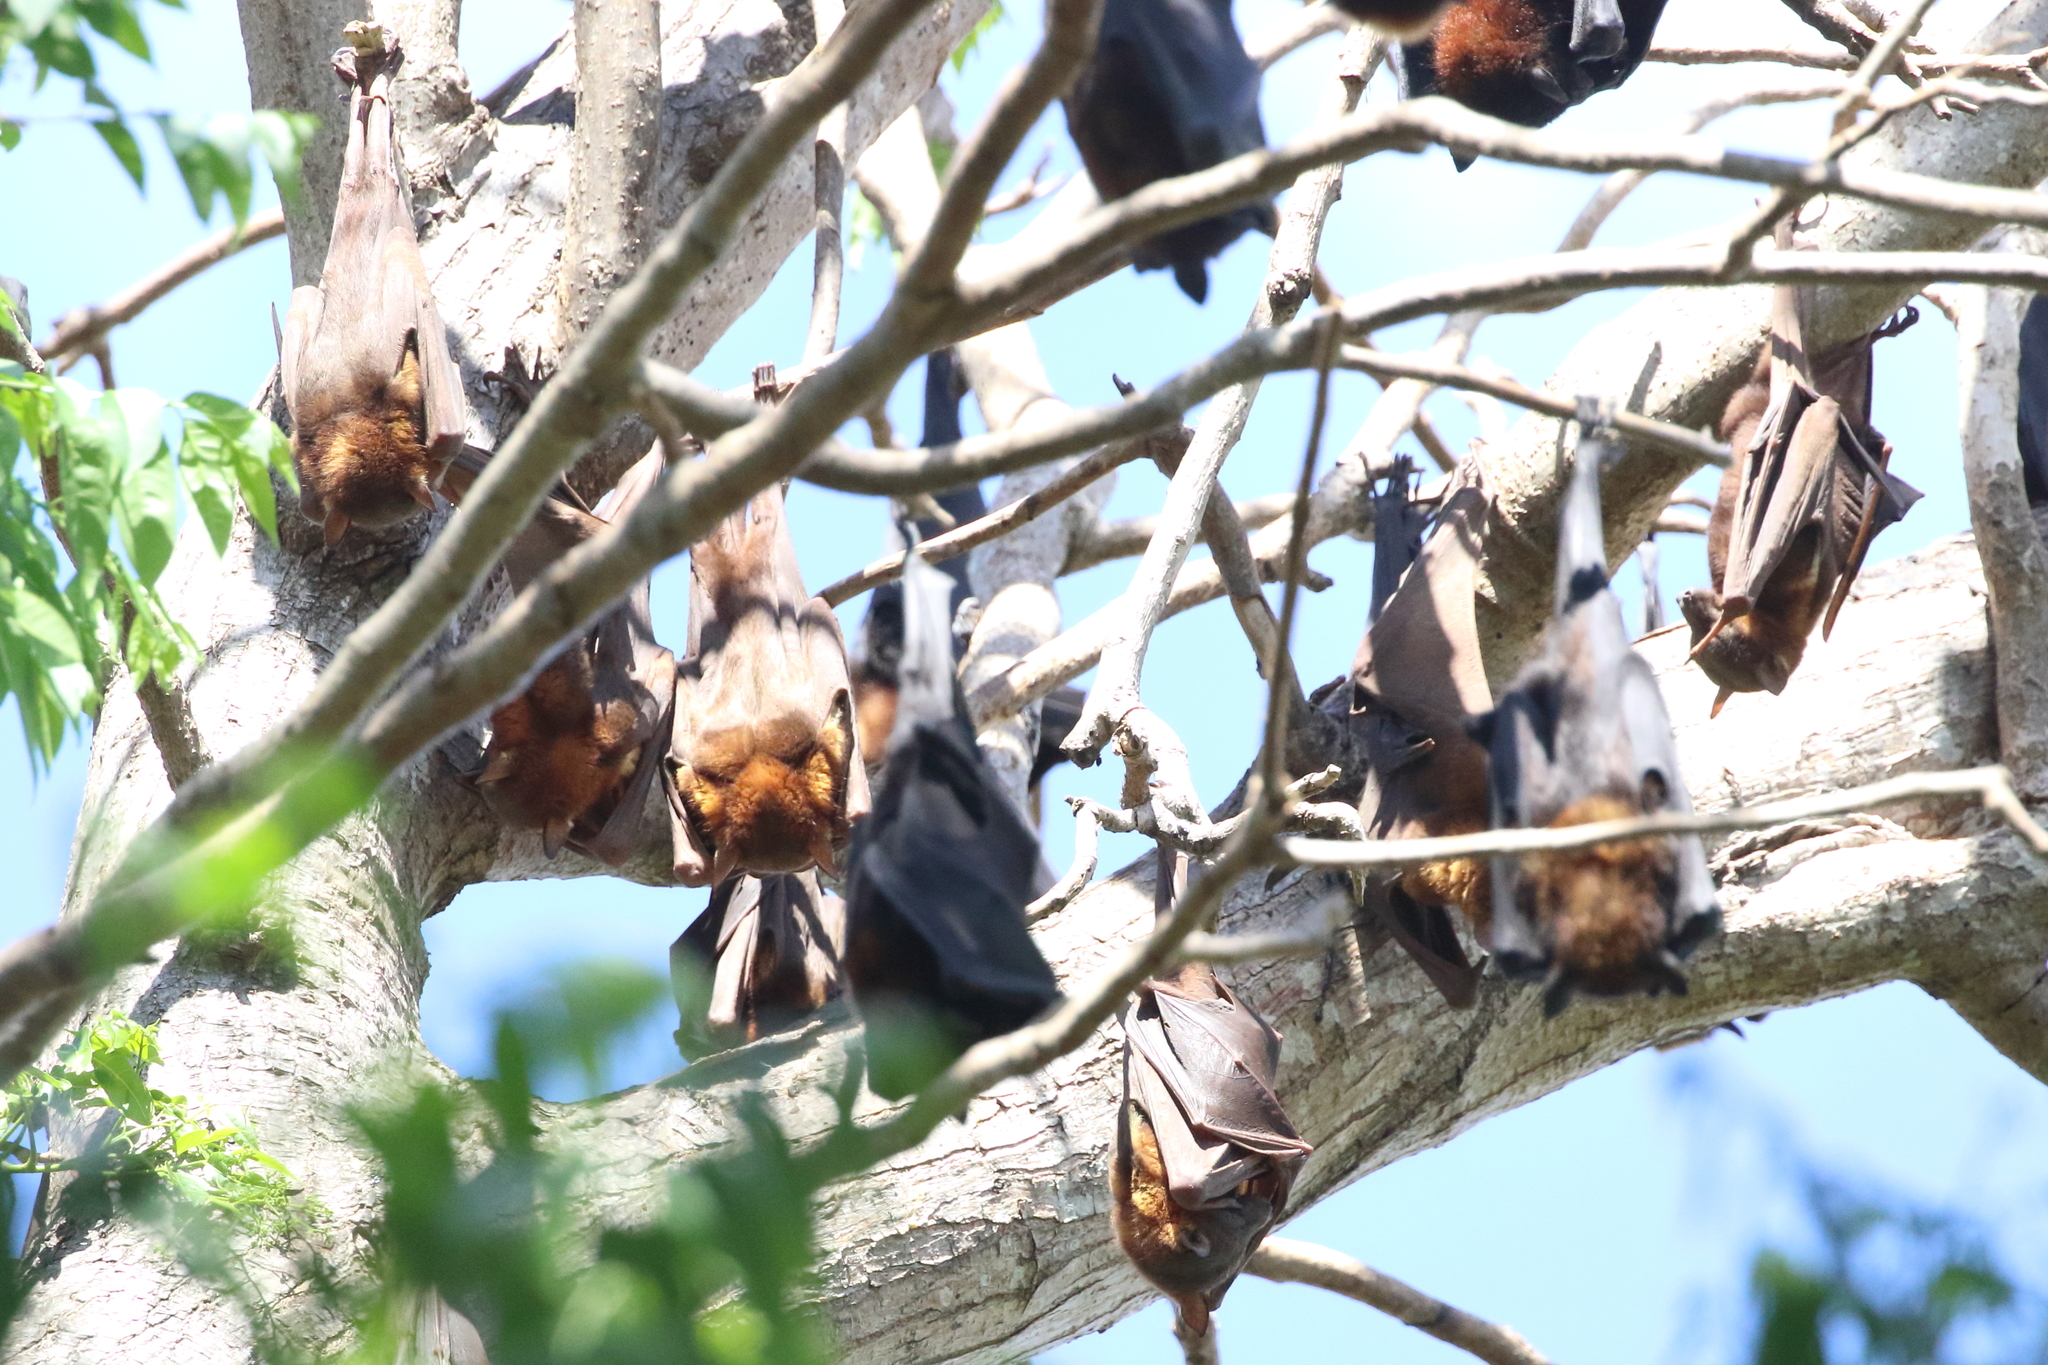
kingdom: Animalia
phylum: Chordata
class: Mammalia
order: Chiroptera
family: Pteropodidae
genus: Pteropus
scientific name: Pteropus scapulatus
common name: Little red flying fox
